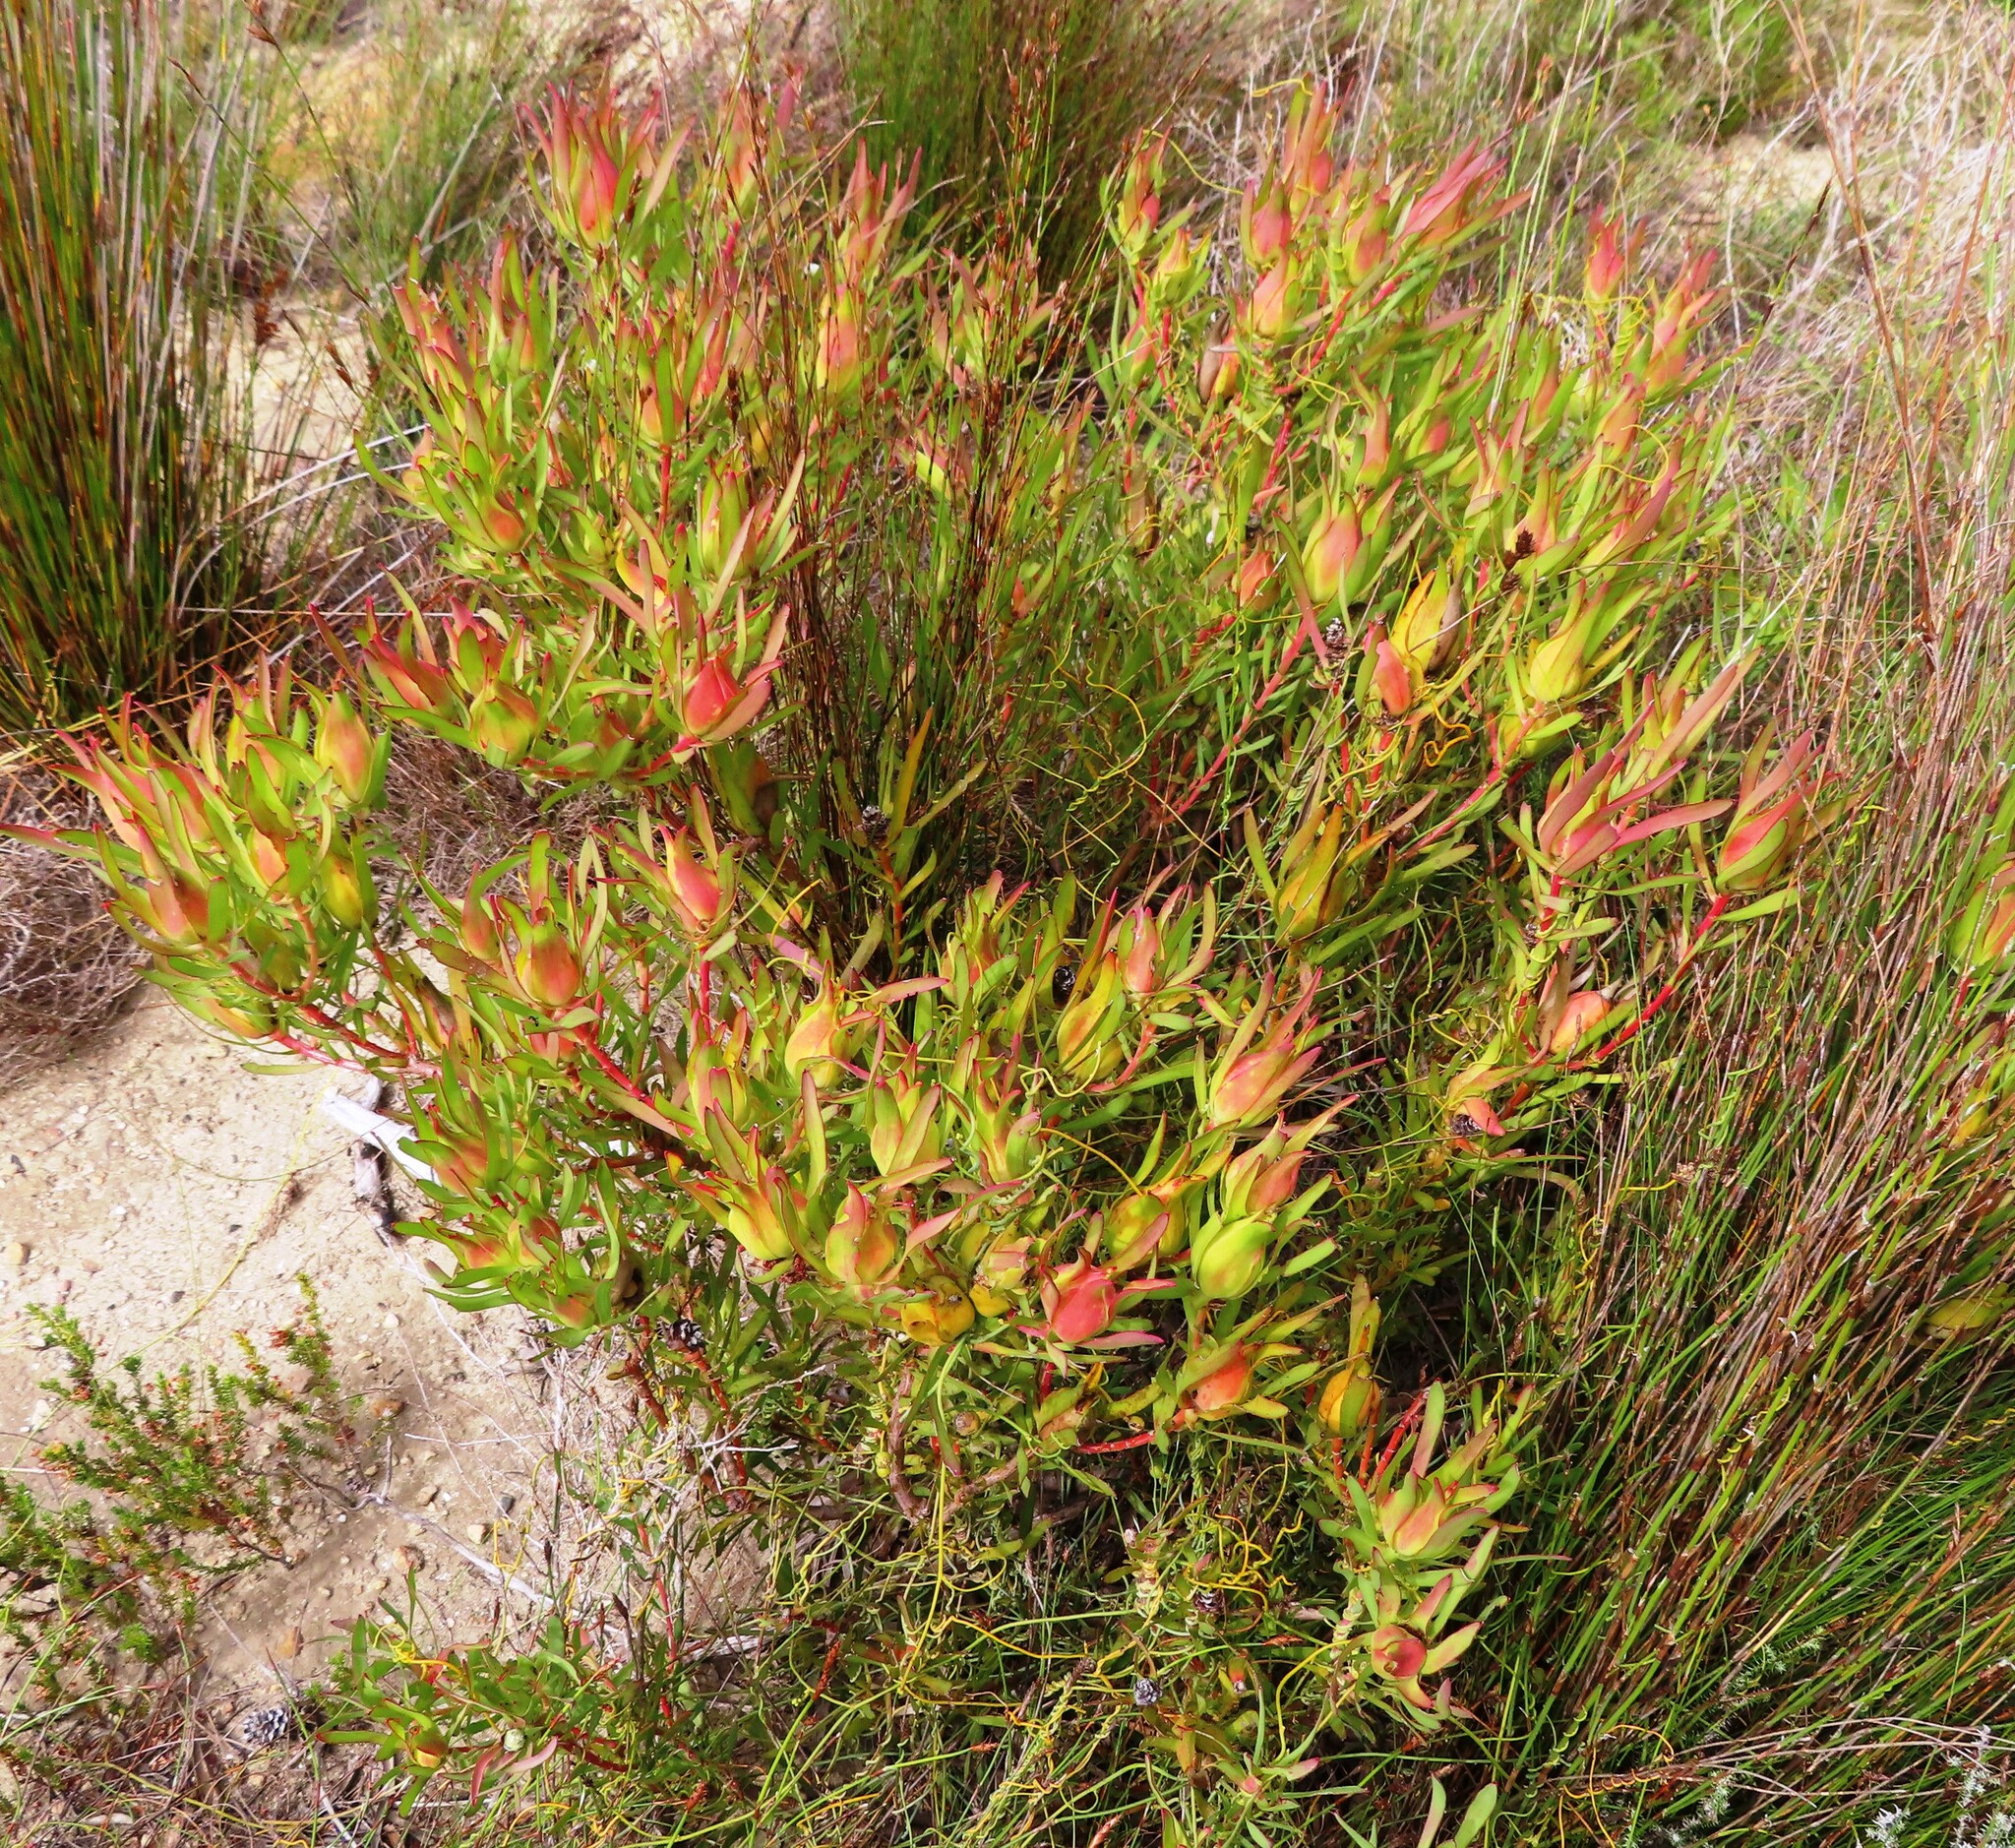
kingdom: Plantae
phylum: Tracheophyta
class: Magnoliopsida
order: Proteales
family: Proteaceae
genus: Leucadendron
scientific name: Leucadendron salignum
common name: Common sunshine conebush
